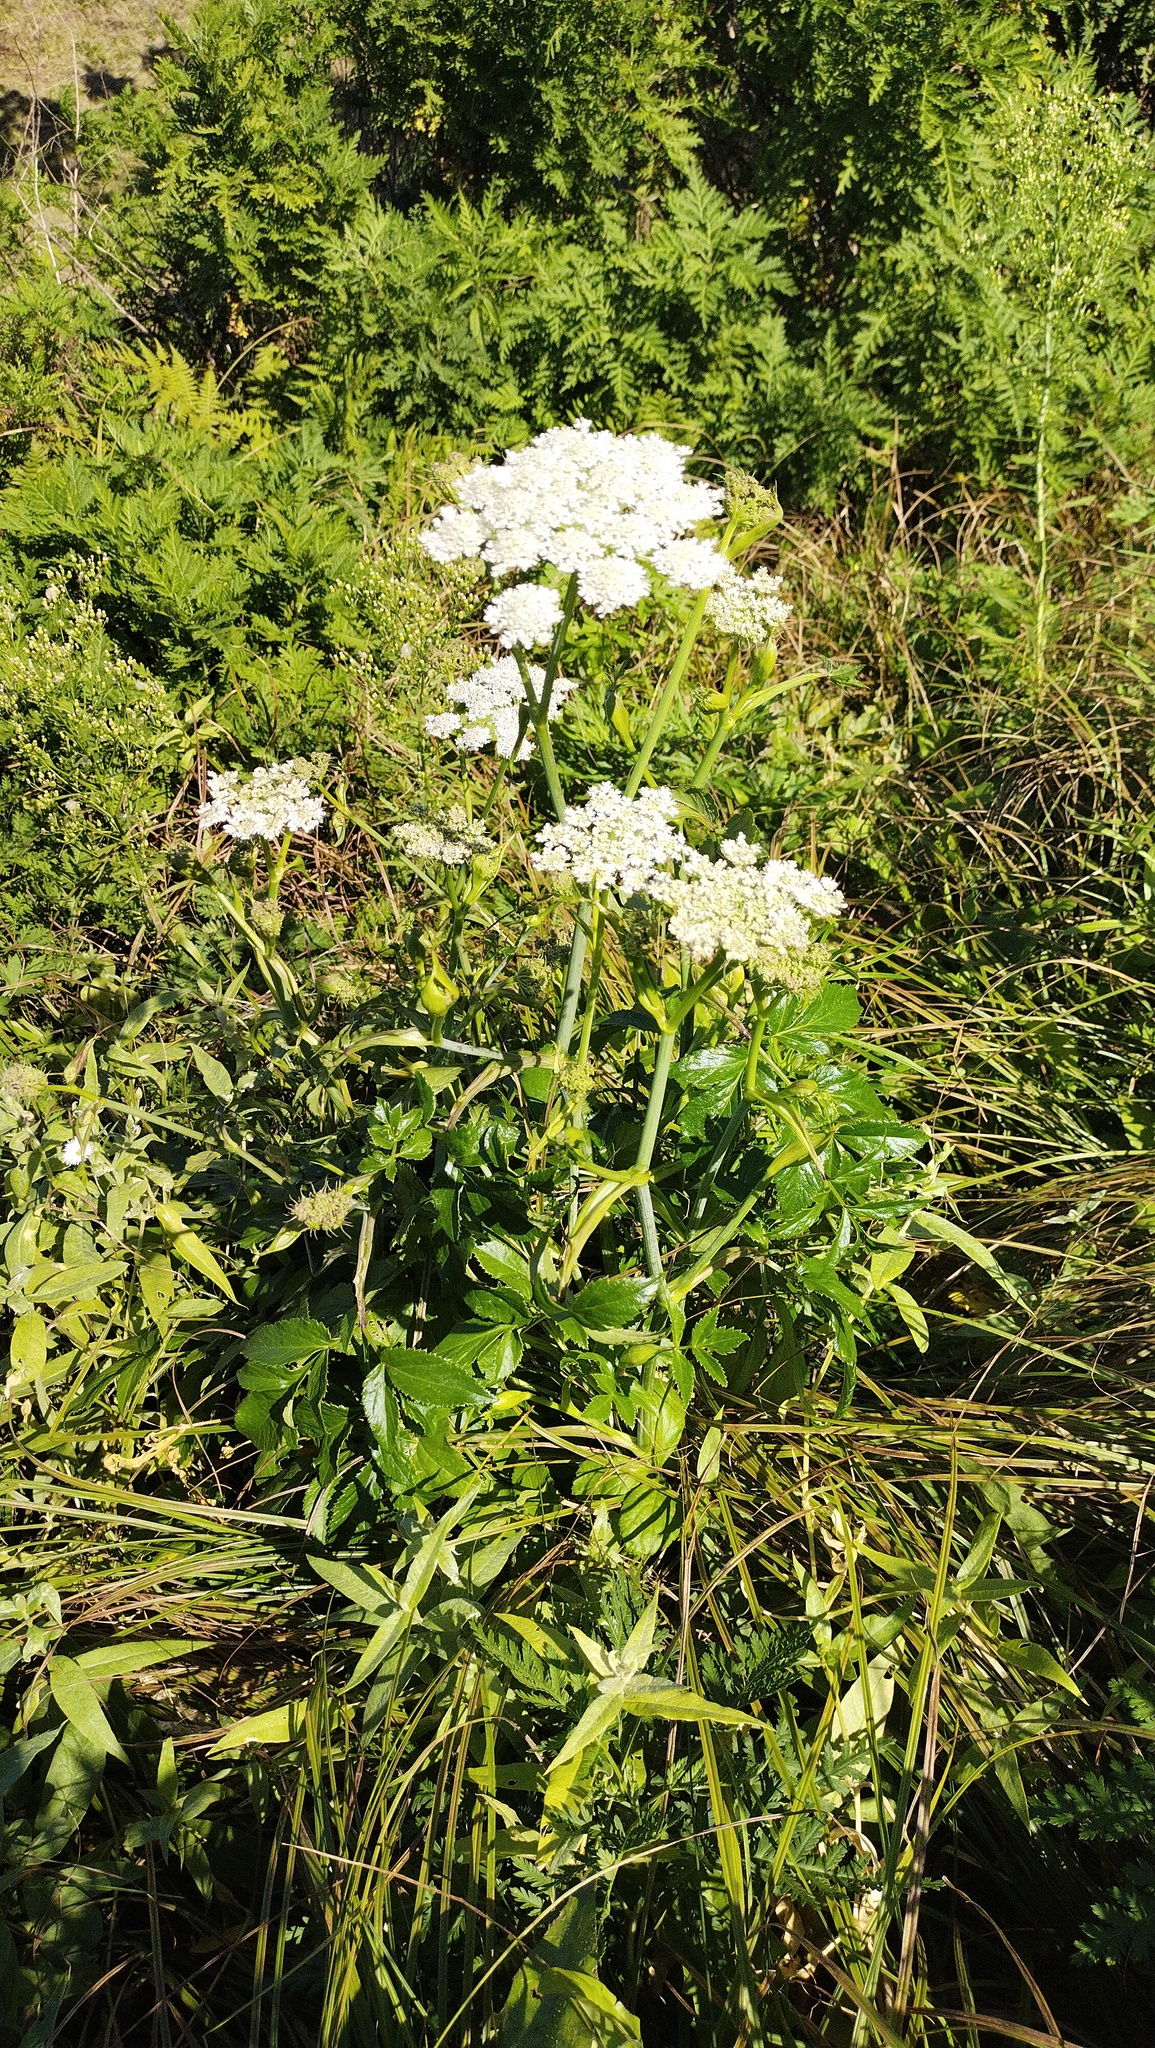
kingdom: Plantae
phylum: Tracheophyta
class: Magnoliopsida
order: Apiales
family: Apiaceae
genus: Angelica
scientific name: Angelica czernaevia
